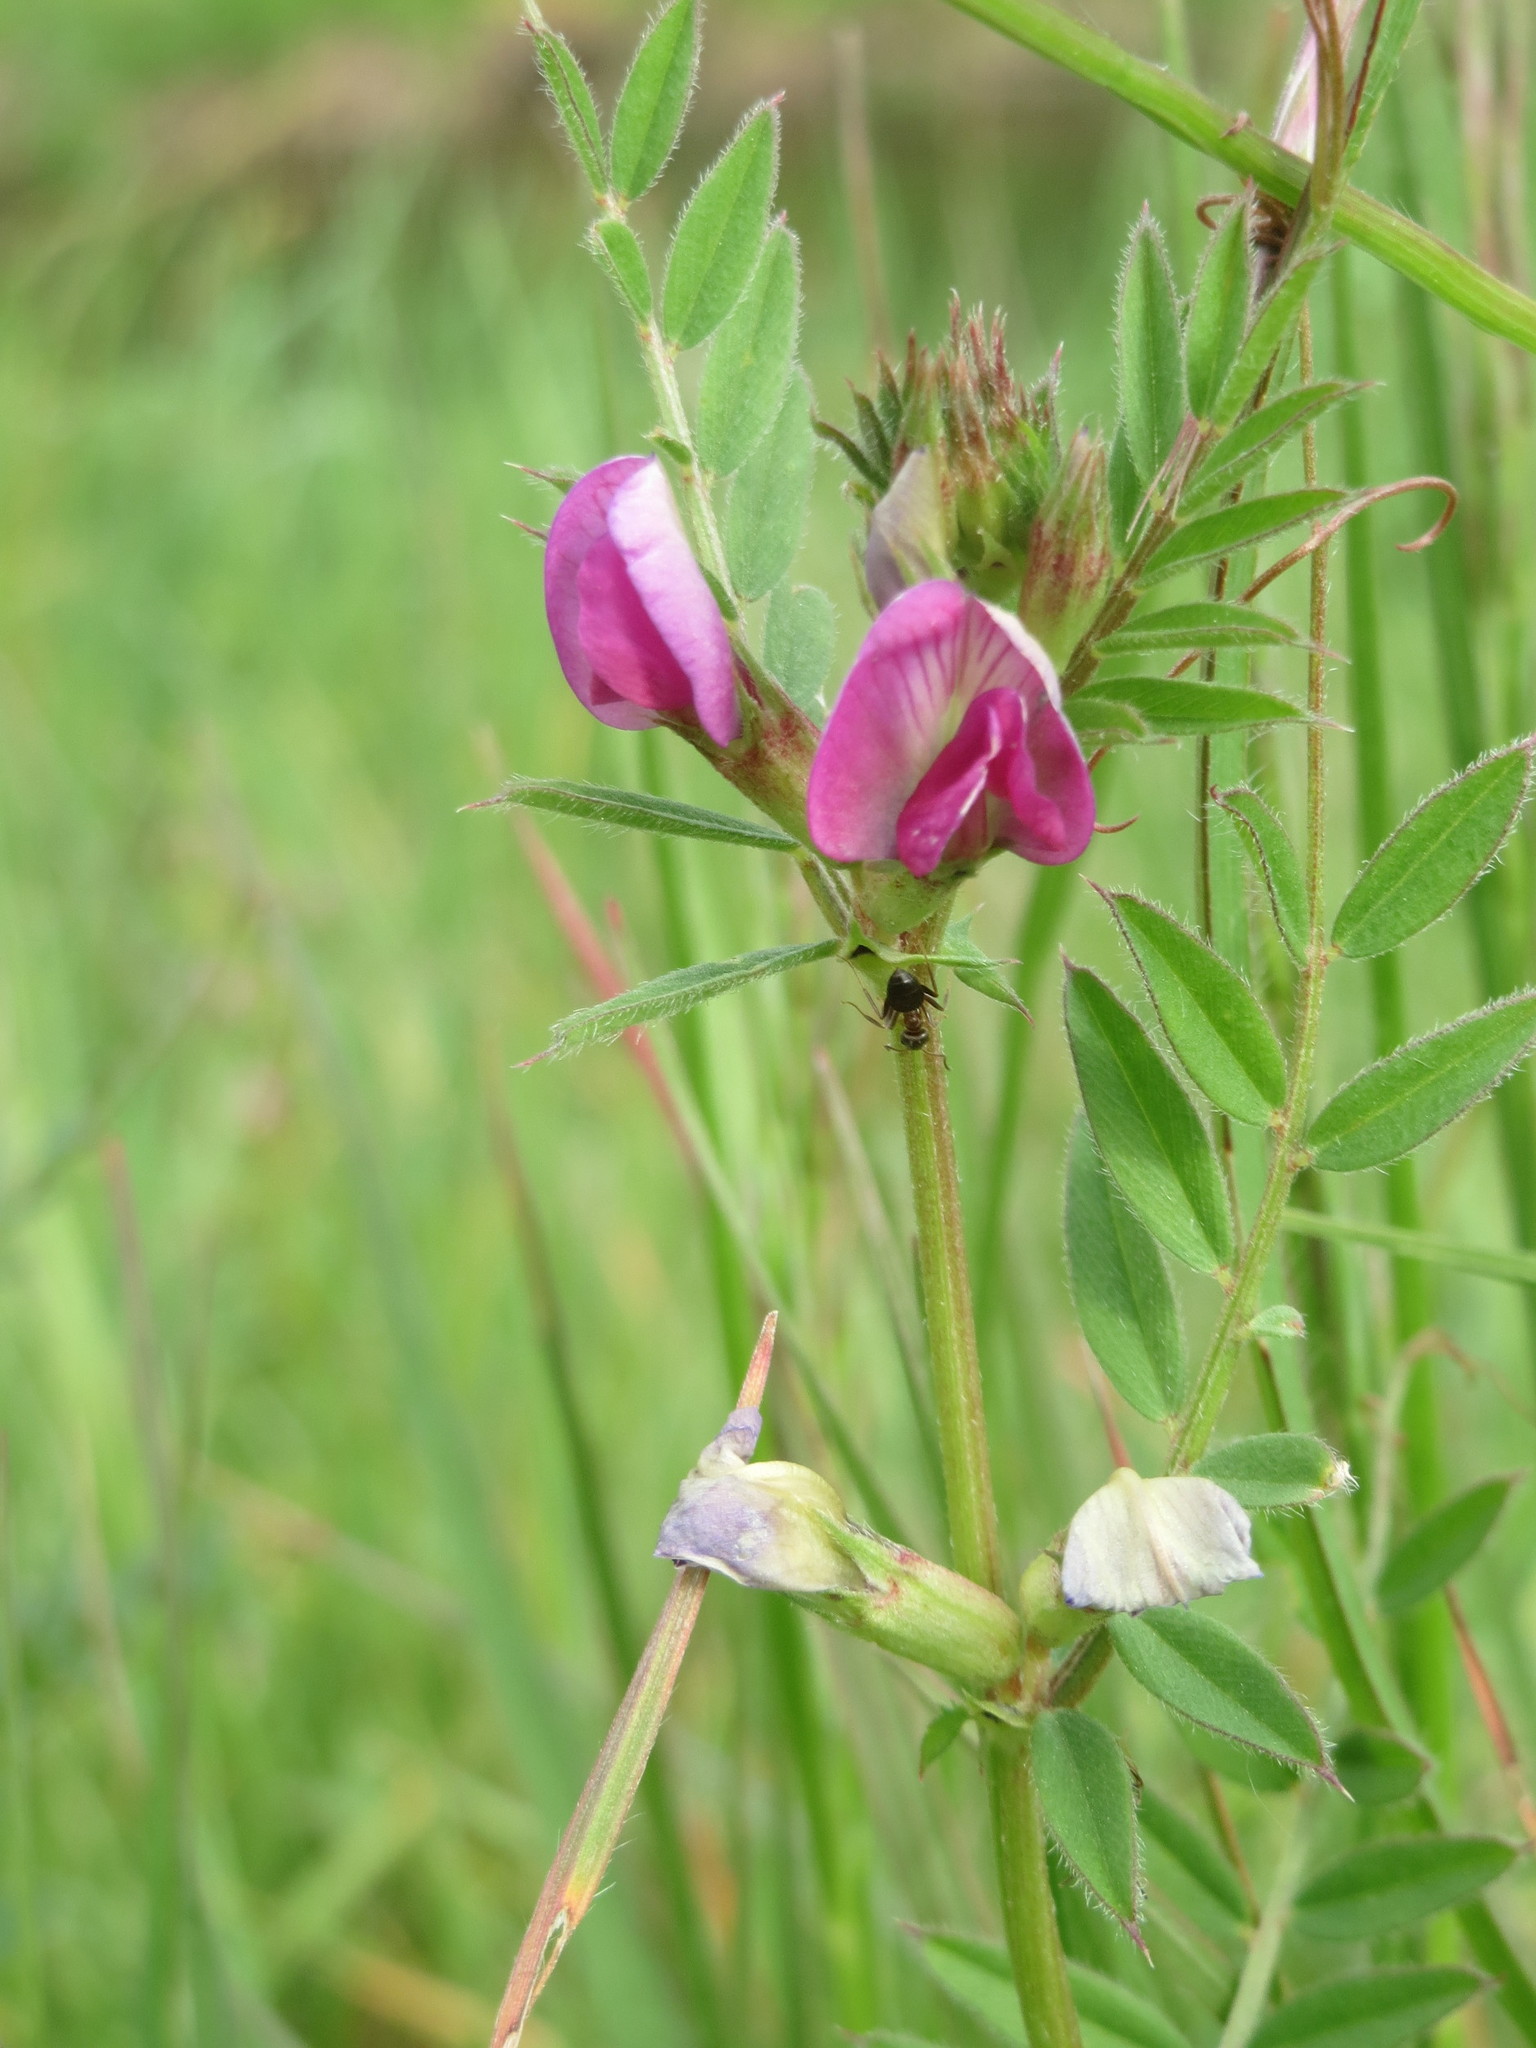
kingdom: Plantae
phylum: Tracheophyta
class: Magnoliopsida
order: Fabales
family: Fabaceae
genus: Vicia
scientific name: Vicia sativa
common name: Garden vetch
